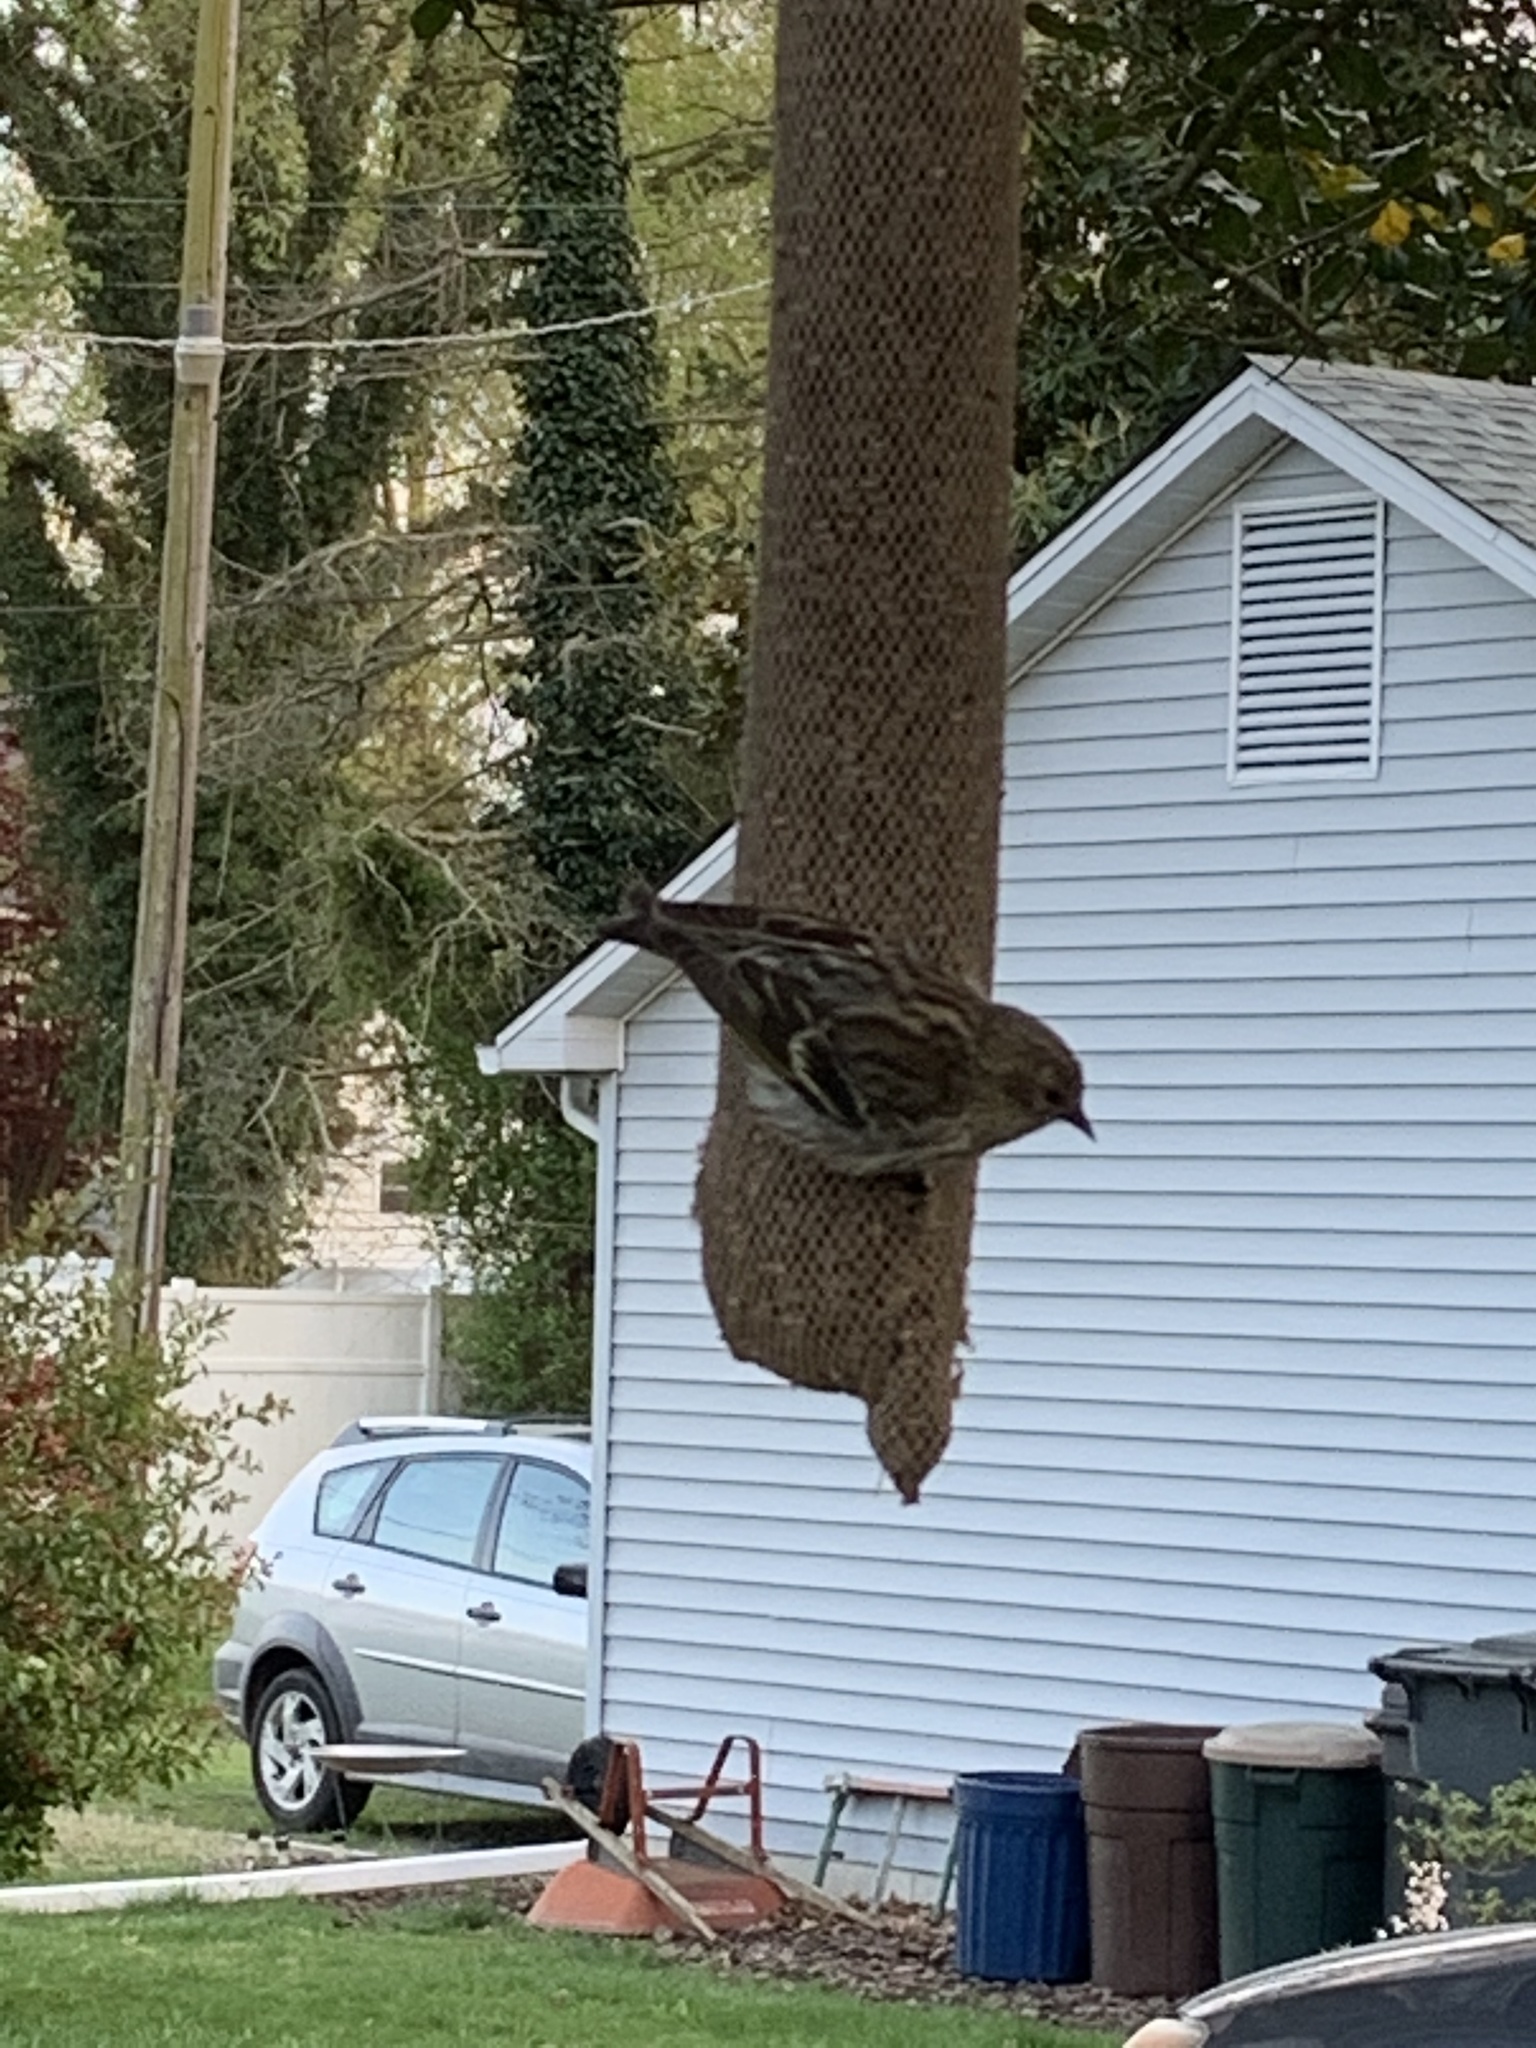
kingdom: Animalia
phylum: Chordata
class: Aves
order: Passeriformes
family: Fringillidae
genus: Spinus
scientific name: Spinus pinus
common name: Pine siskin
